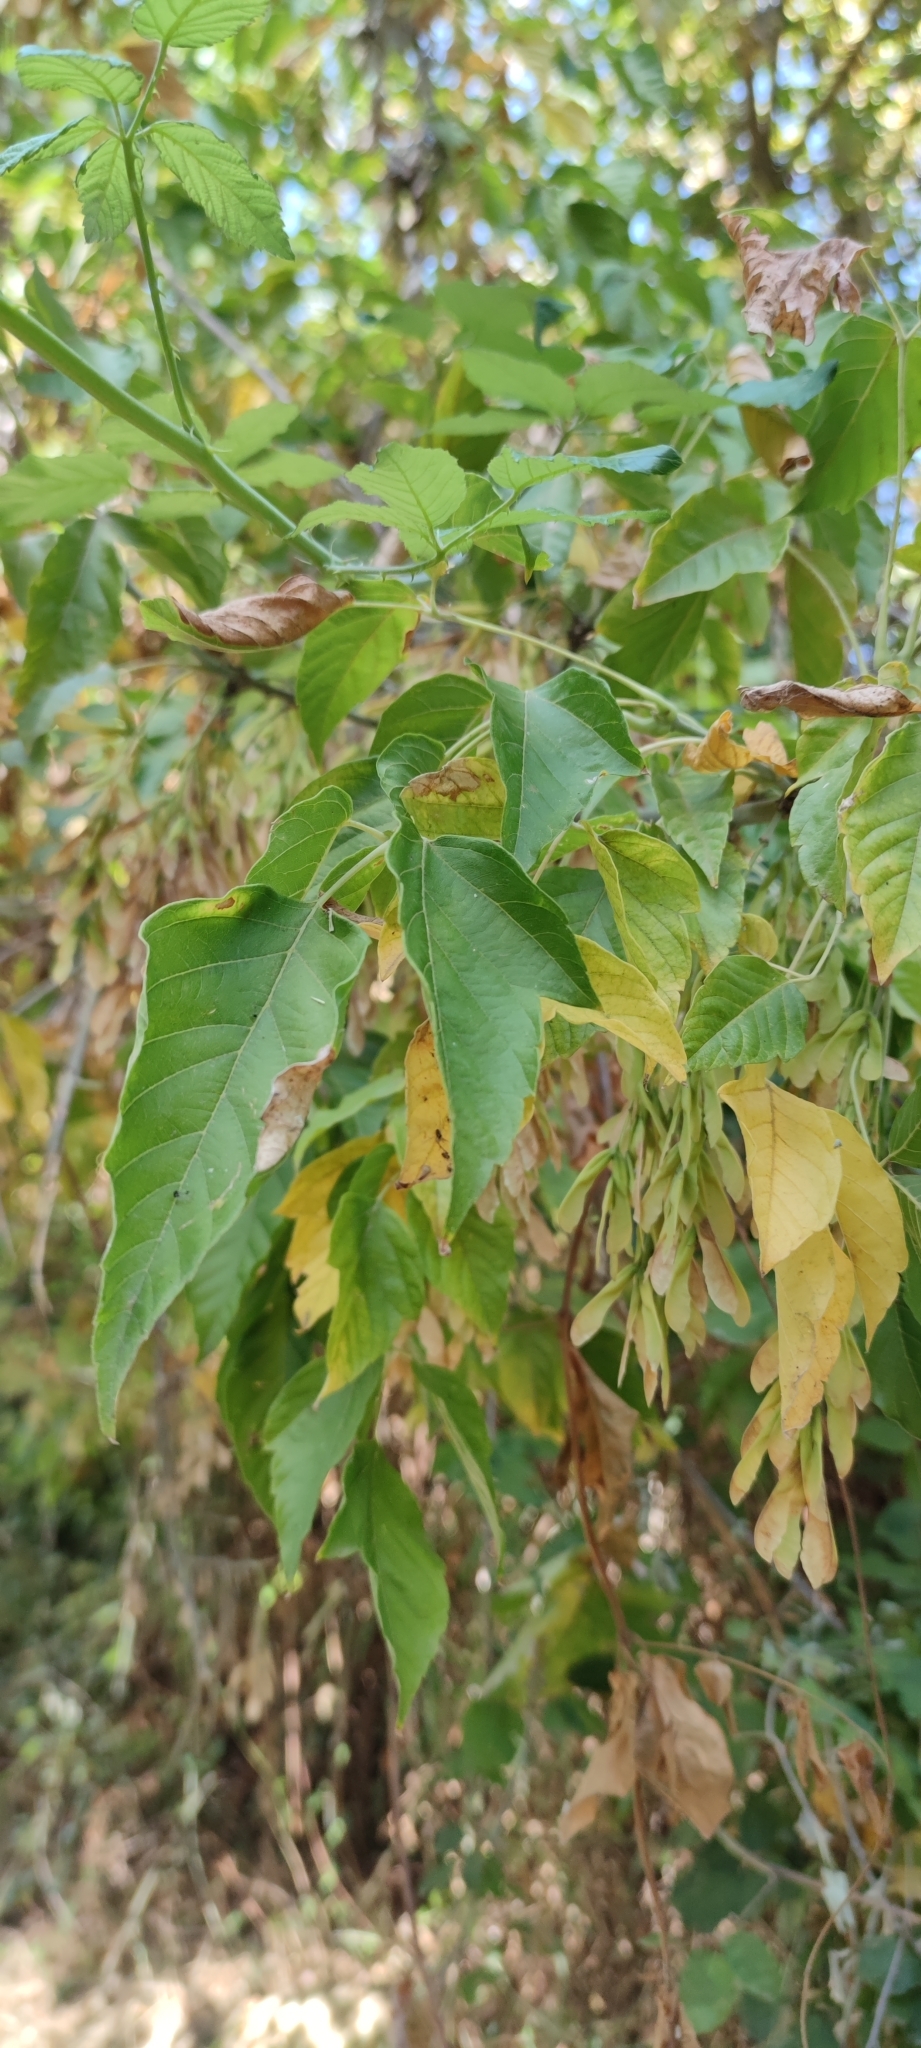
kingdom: Plantae
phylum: Tracheophyta
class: Magnoliopsida
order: Sapindales
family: Sapindaceae
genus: Acer
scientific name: Acer negundo
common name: Ashleaf maple
